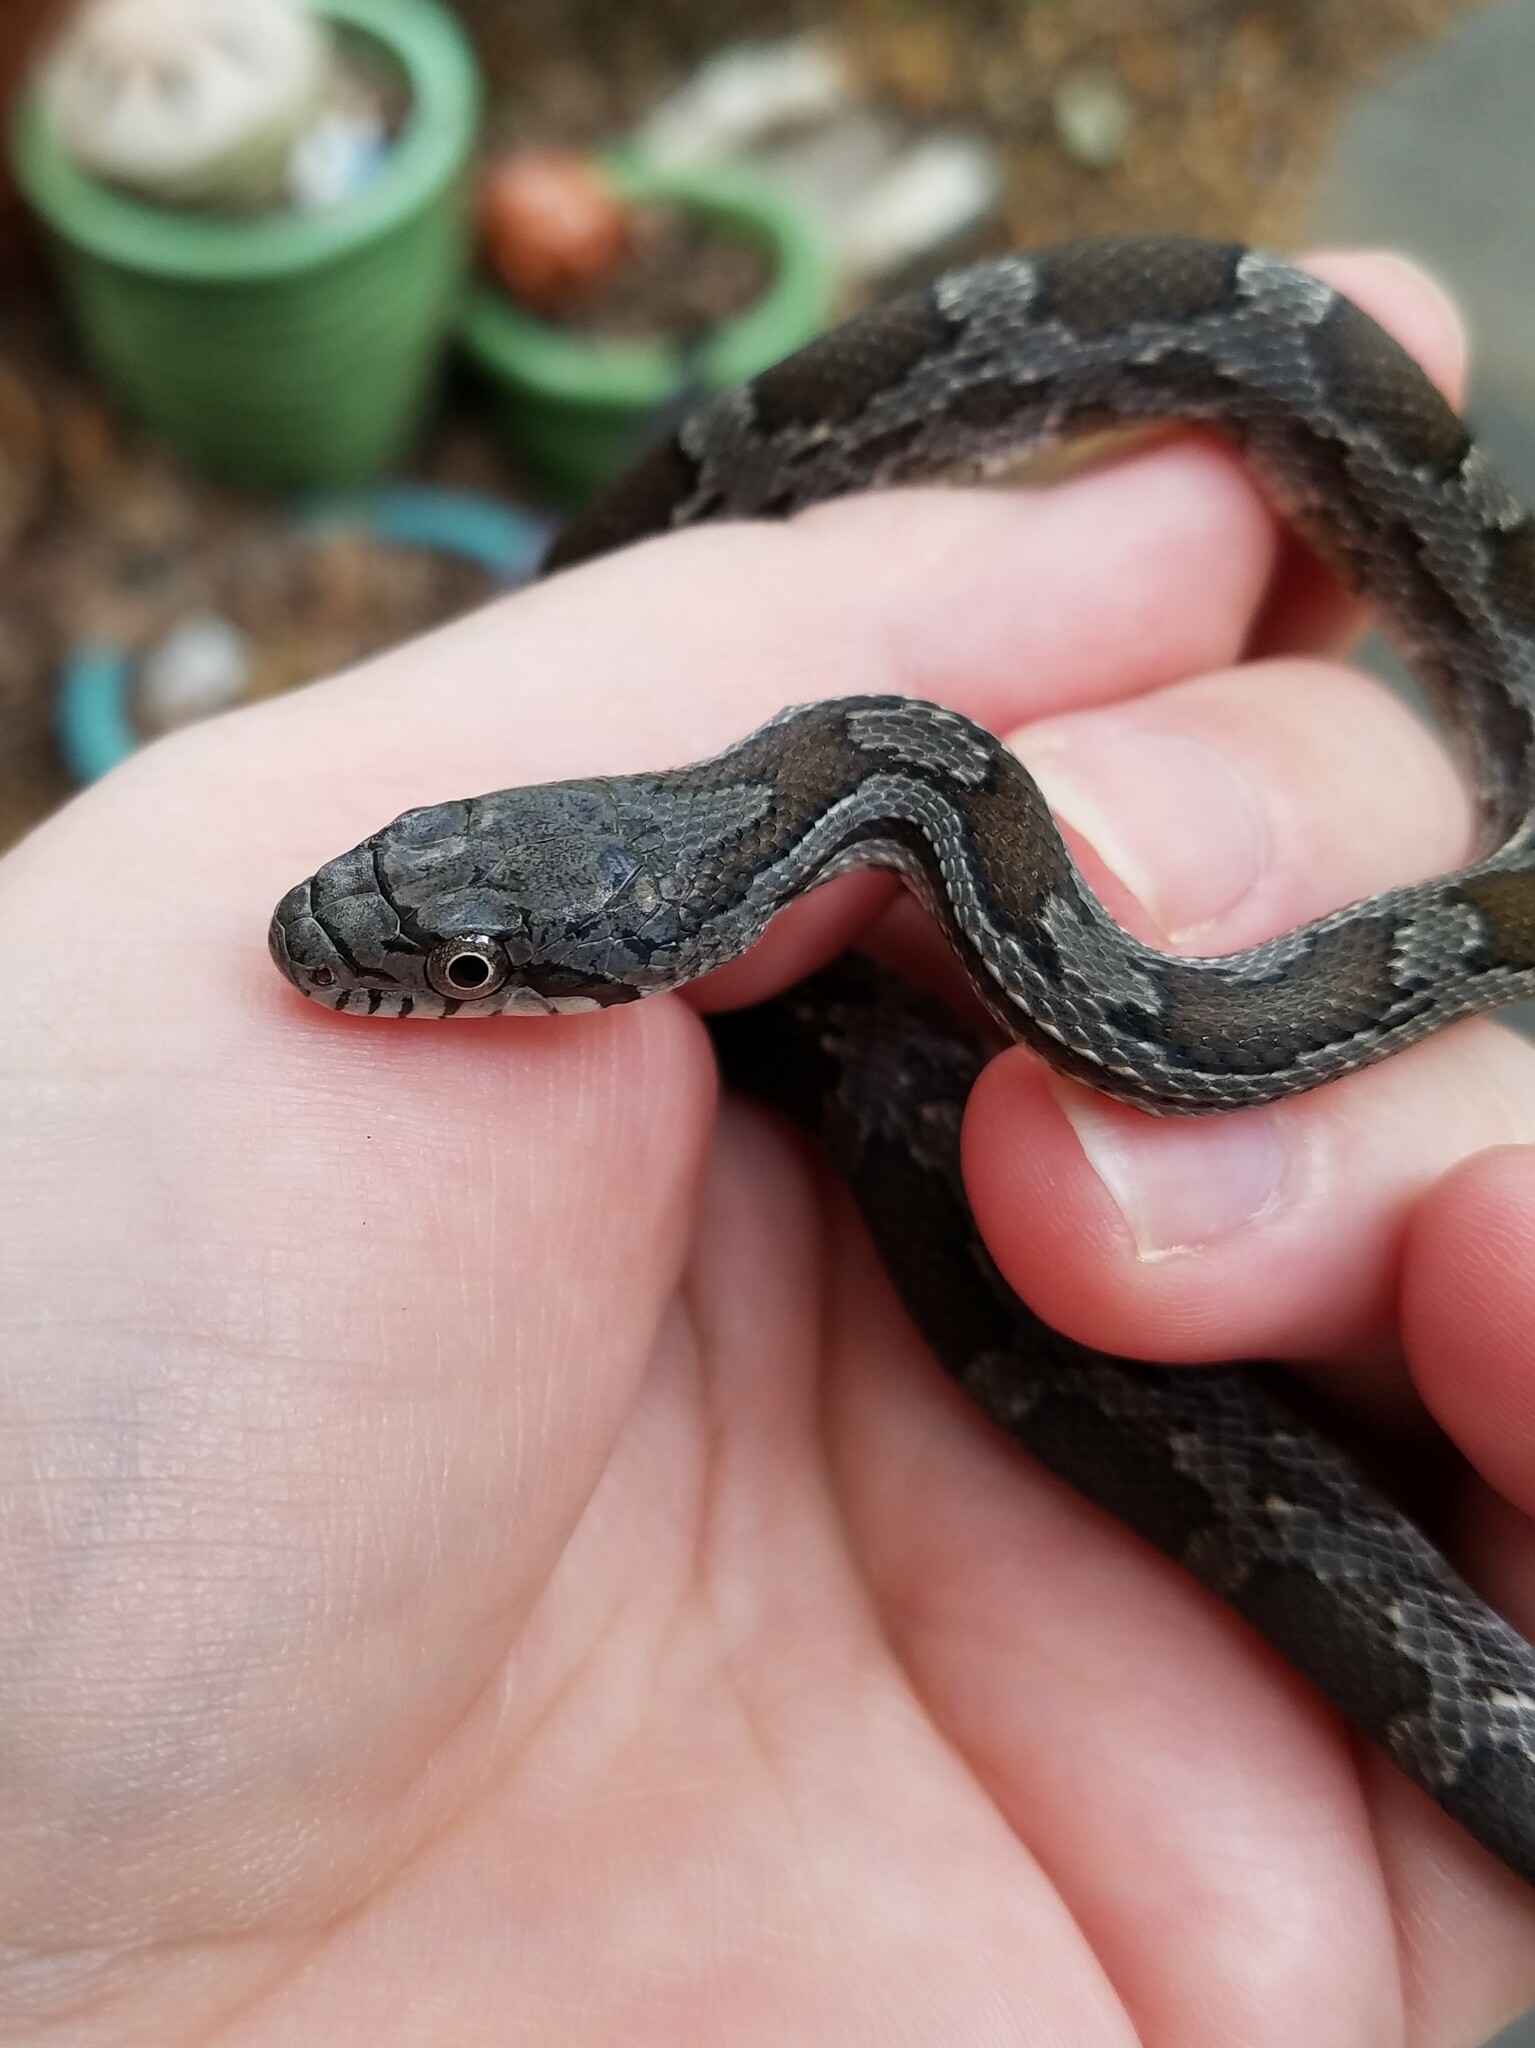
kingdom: Animalia
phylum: Chordata
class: Squamata
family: Colubridae
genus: Pantherophis
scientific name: Pantherophis
